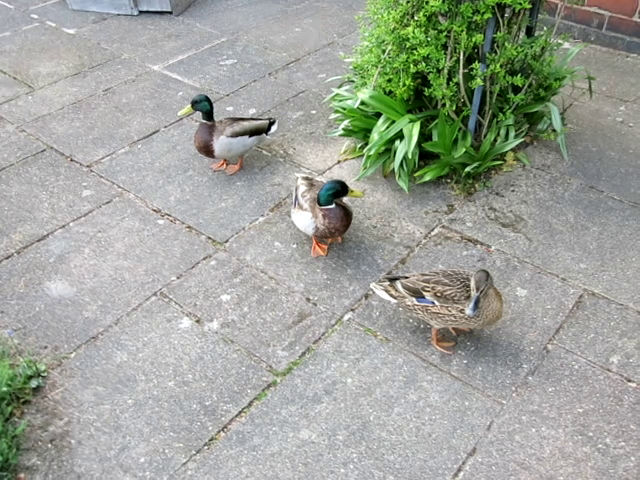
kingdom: Animalia
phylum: Chordata
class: Aves
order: Anseriformes
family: Anatidae
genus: Anas
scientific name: Anas platyrhynchos
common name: Mallard
